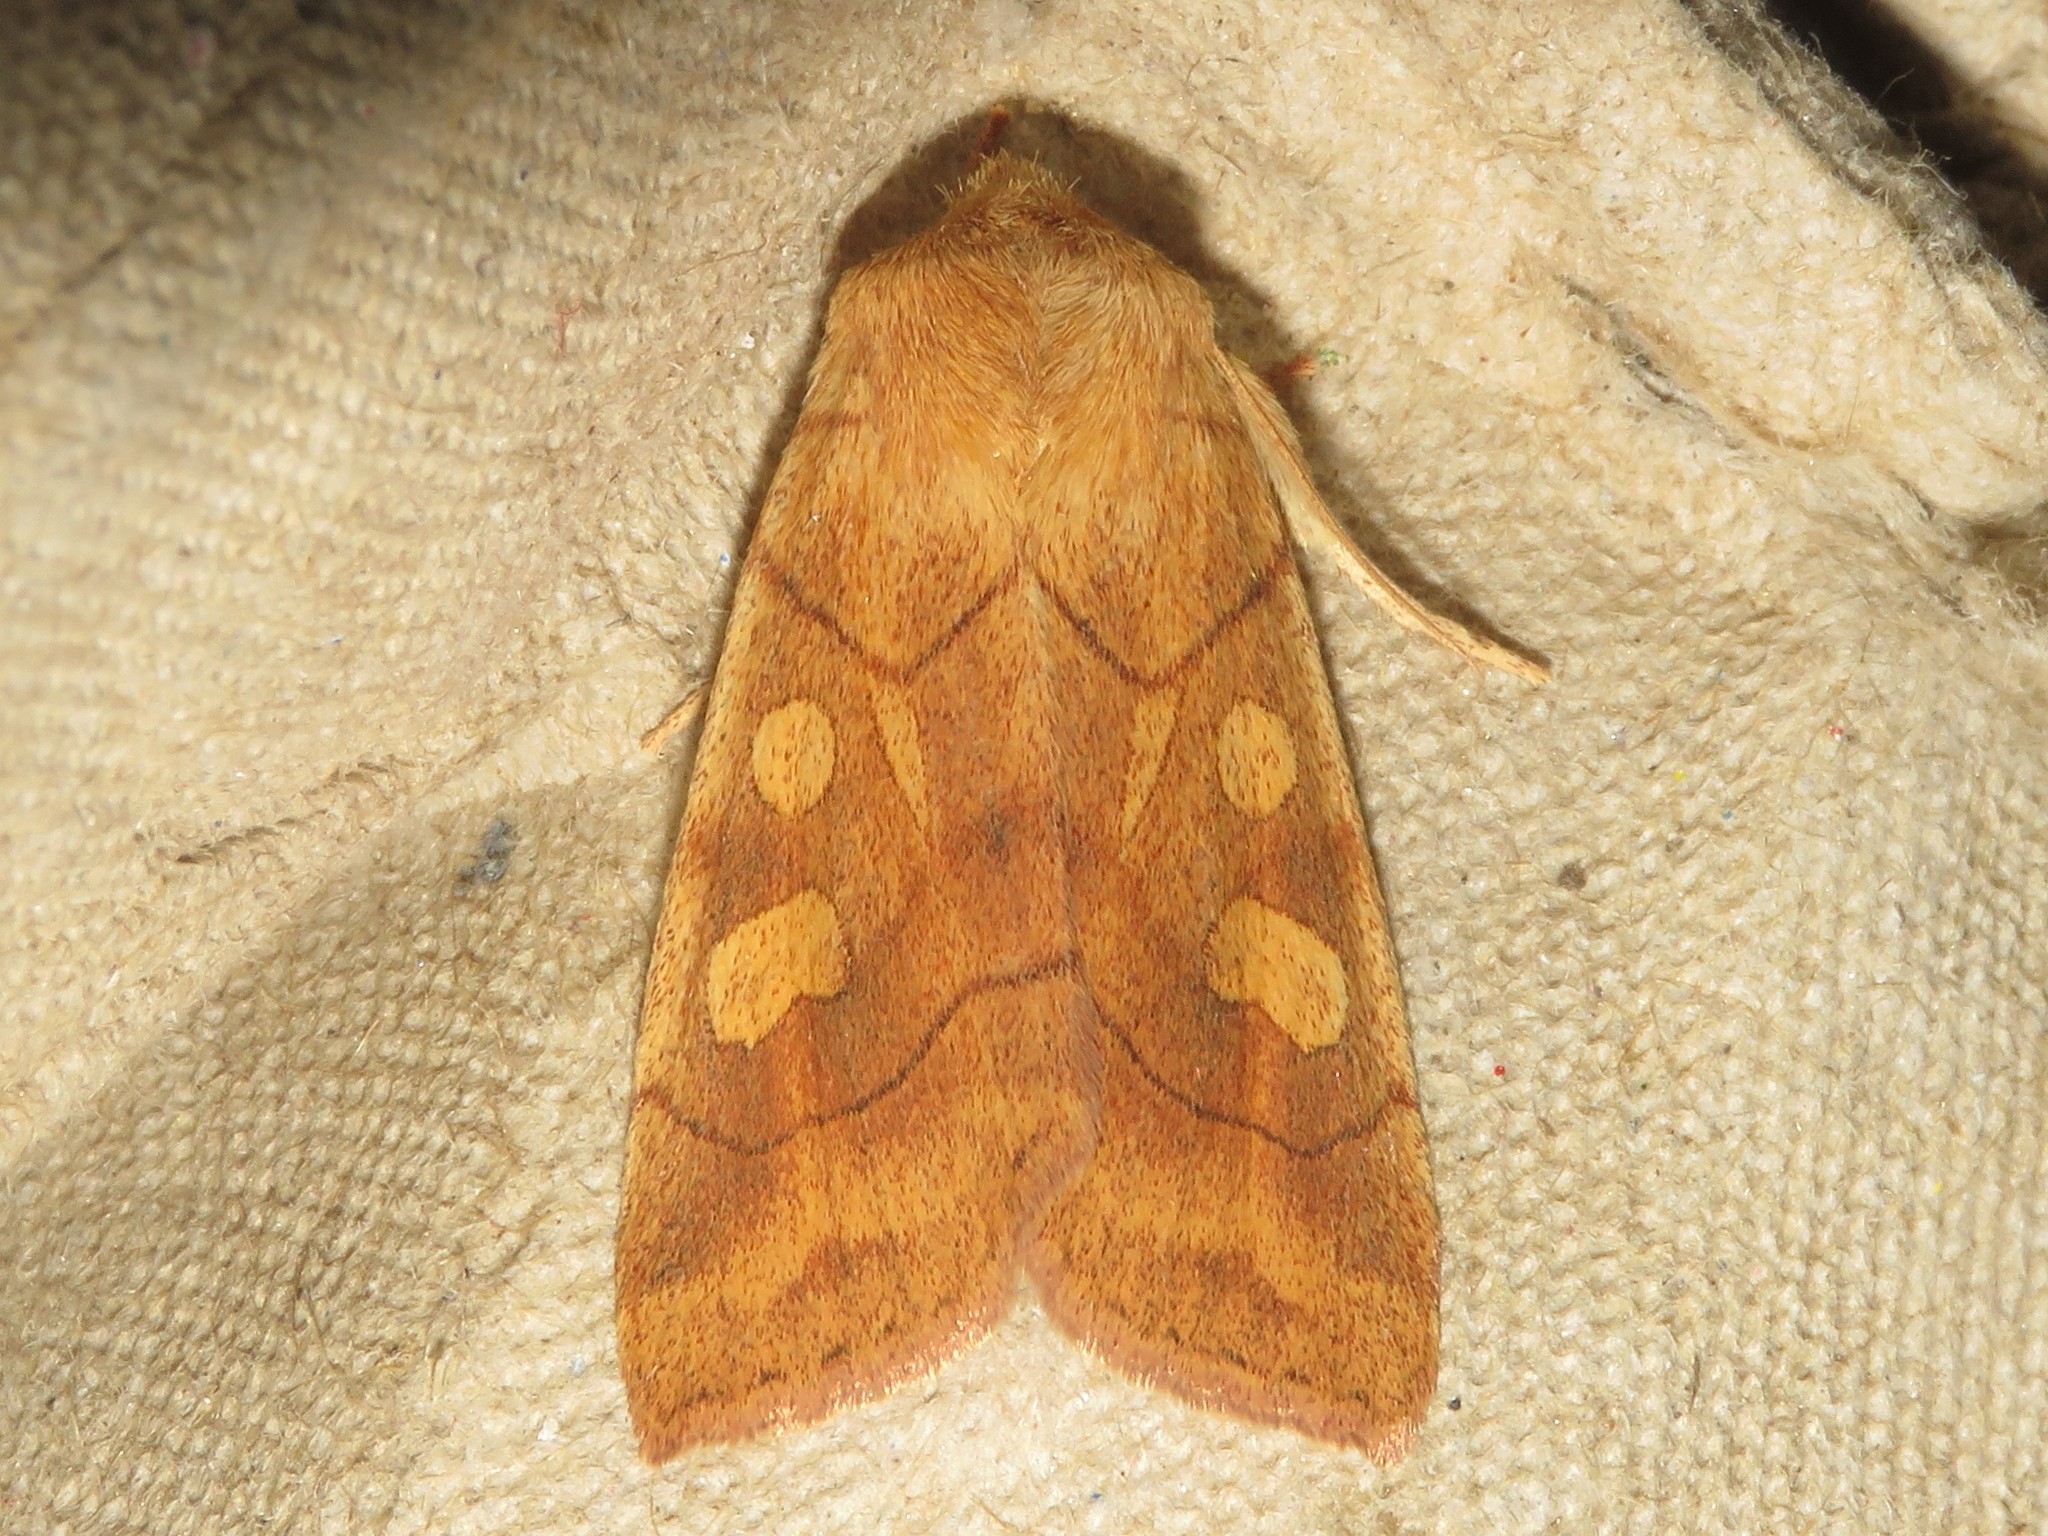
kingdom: Animalia
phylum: Arthropoda
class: Insecta
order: Lepidoptera
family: Noctuidae
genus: Enargia
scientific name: Enargia decolor
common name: Aspen twoleaf tier moth
